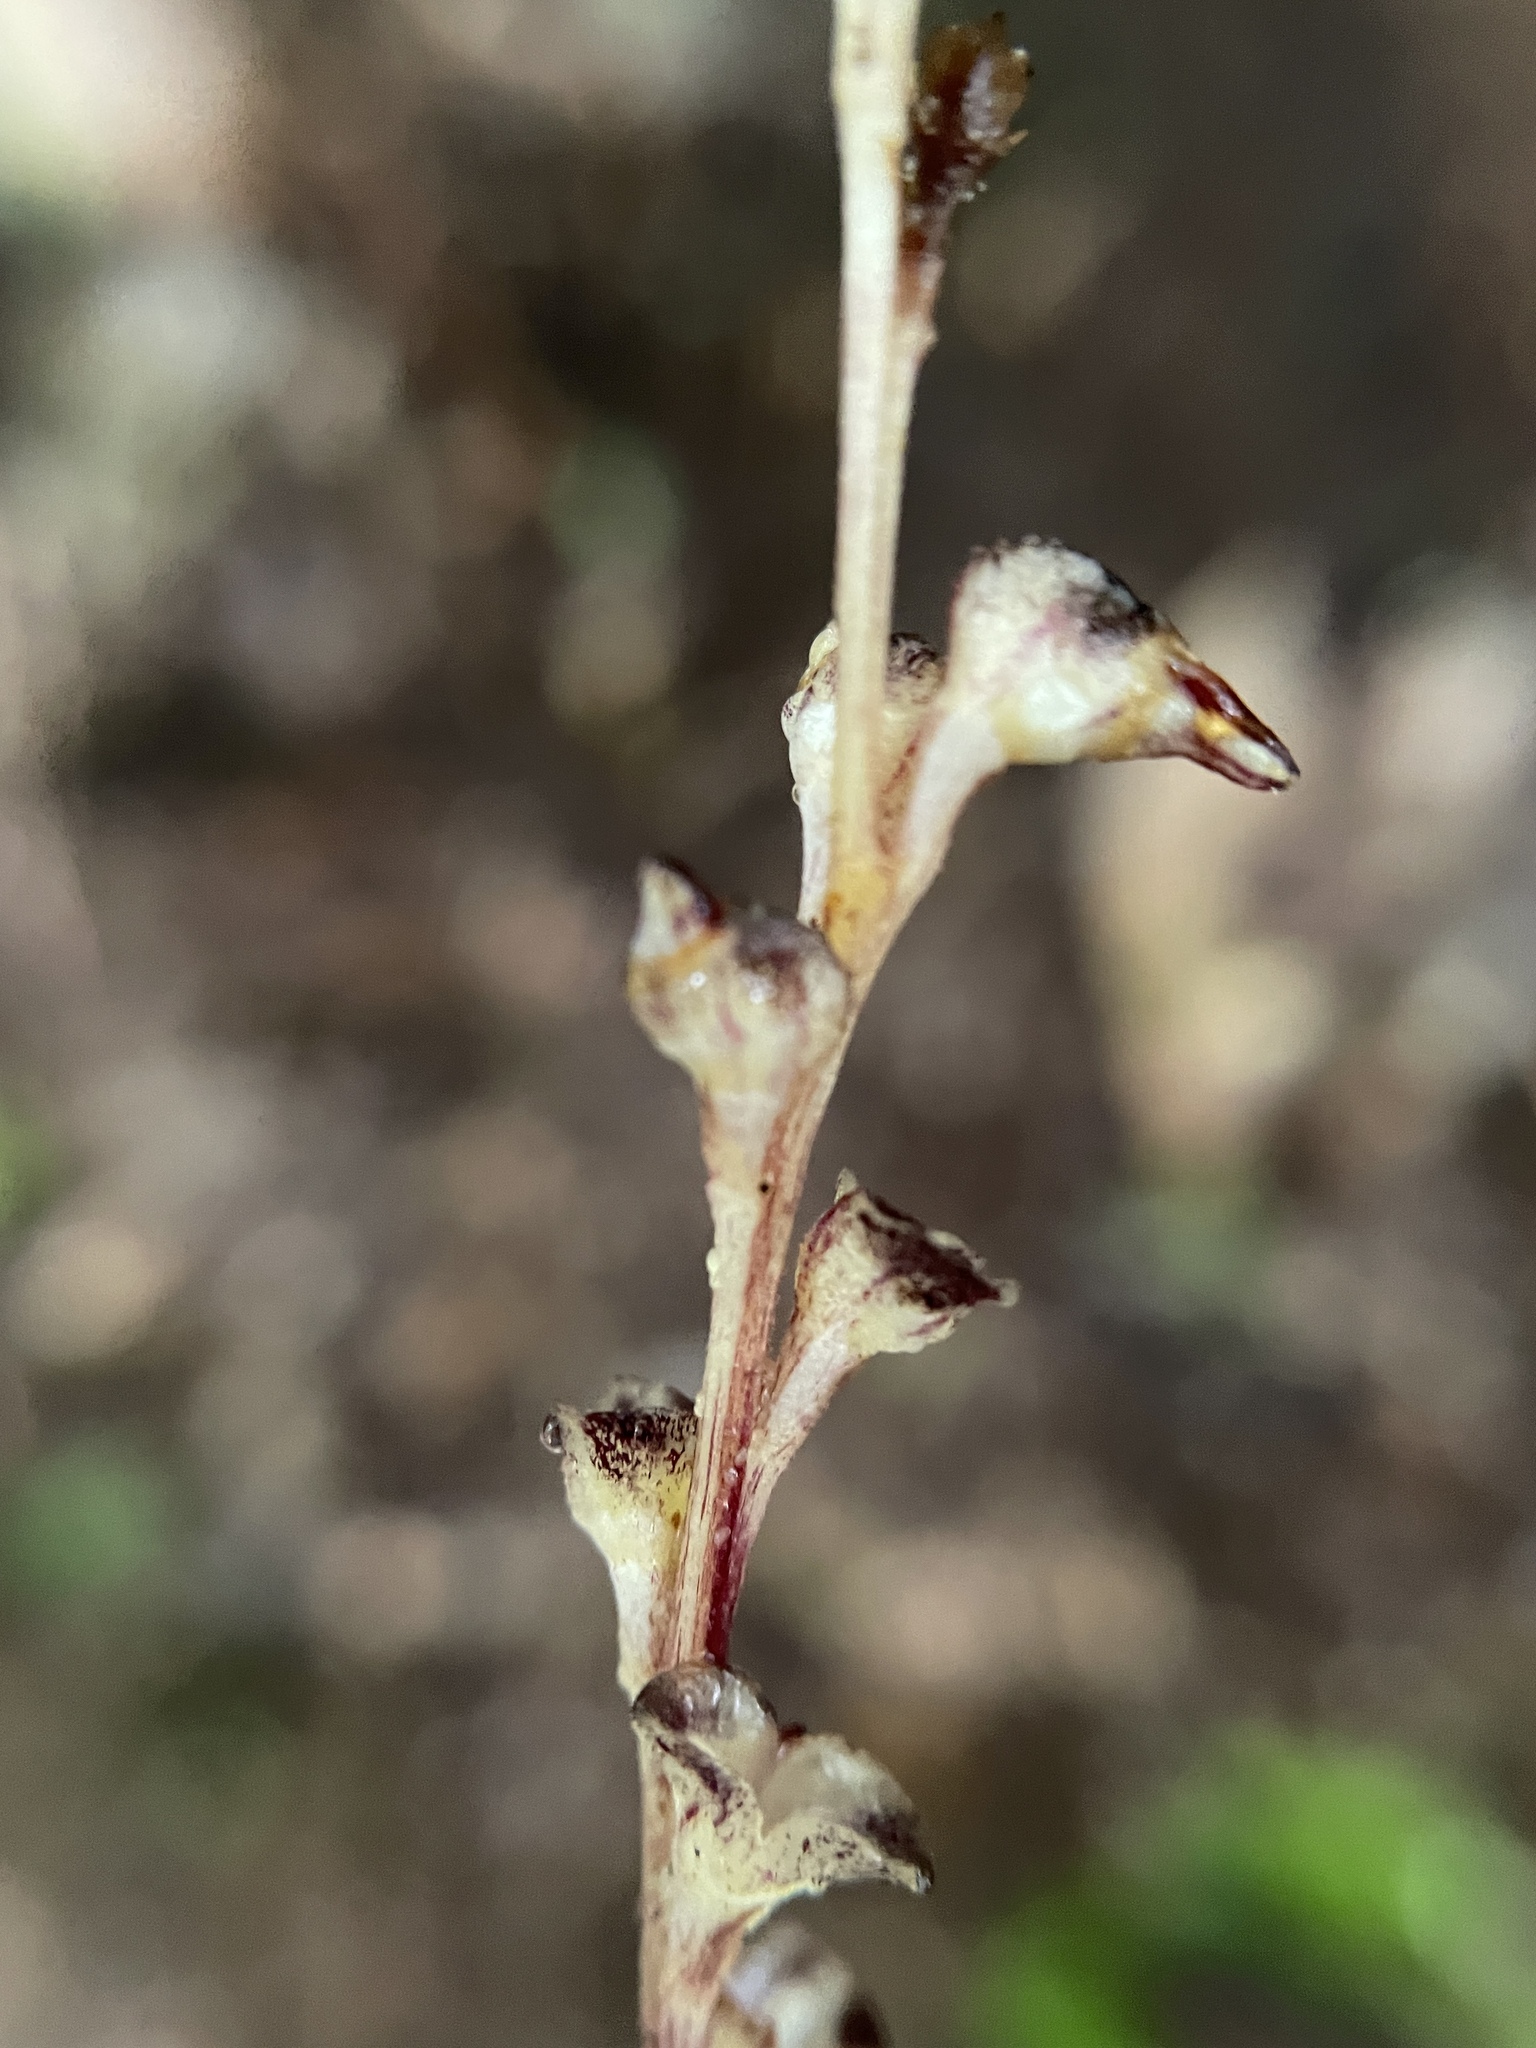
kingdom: Plantae
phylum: Tracheophyta
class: Magnoliopsida
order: Lamiales
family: Orobanchaceae
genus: Epifagus
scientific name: Epifagus virginiana
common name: Beechdrops
